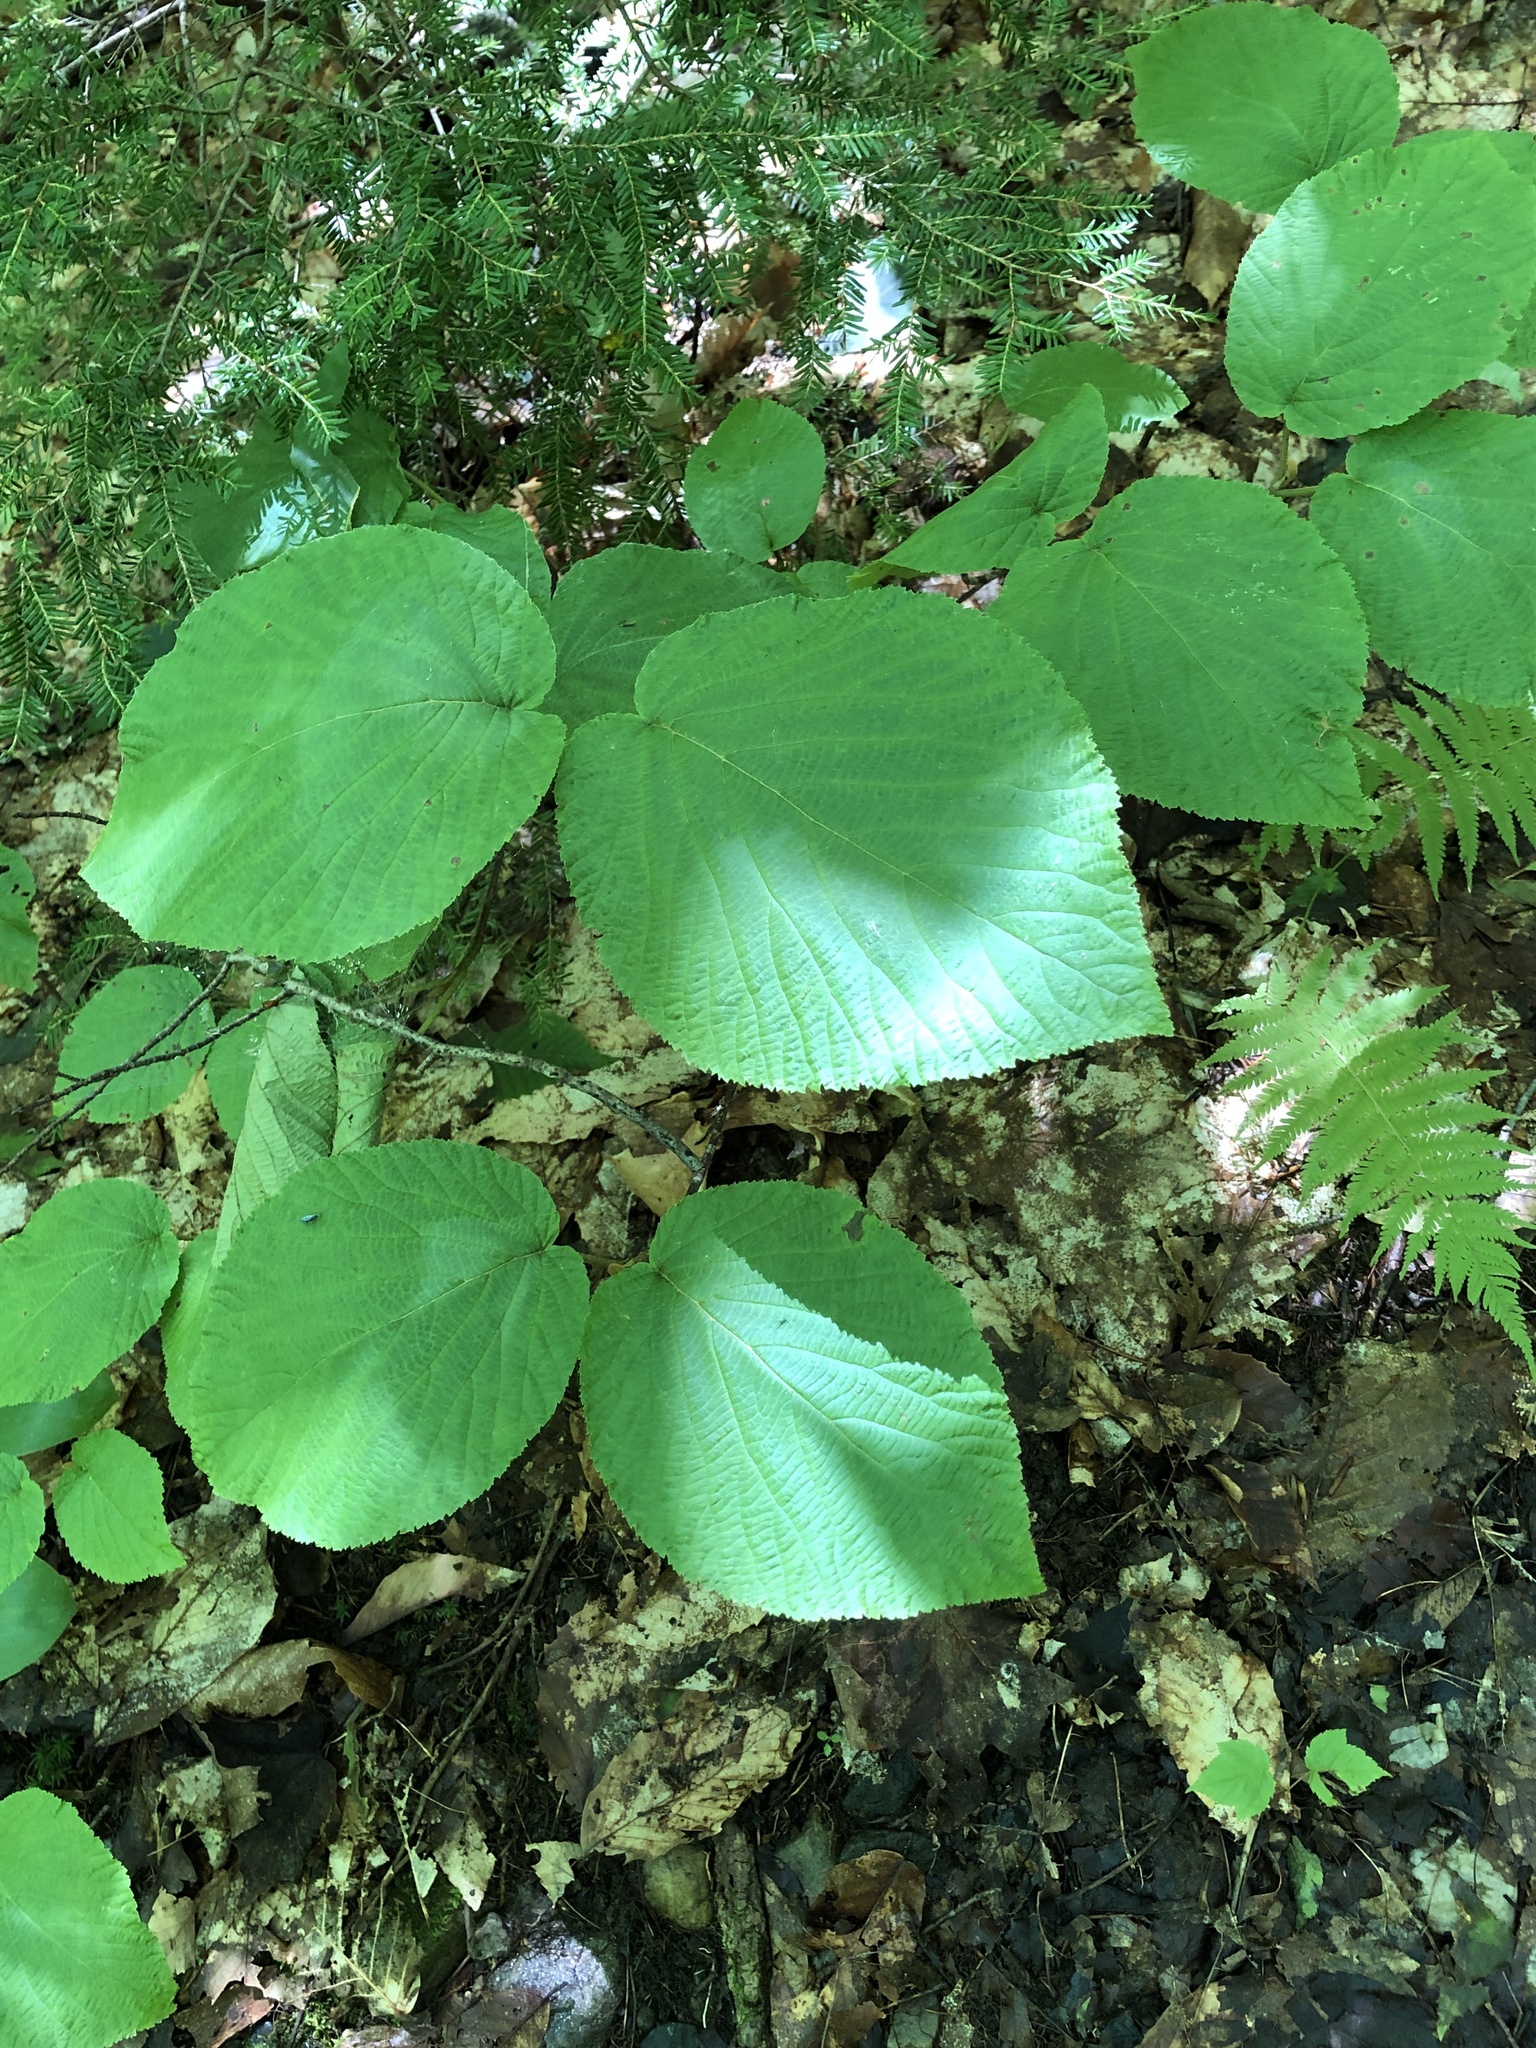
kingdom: Plantae
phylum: Tracheophyta
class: Magnoliopsida
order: Dipsacales
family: Viburnaceae
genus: Viburnum
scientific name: Viburnum lantanoides
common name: Hobblebush
